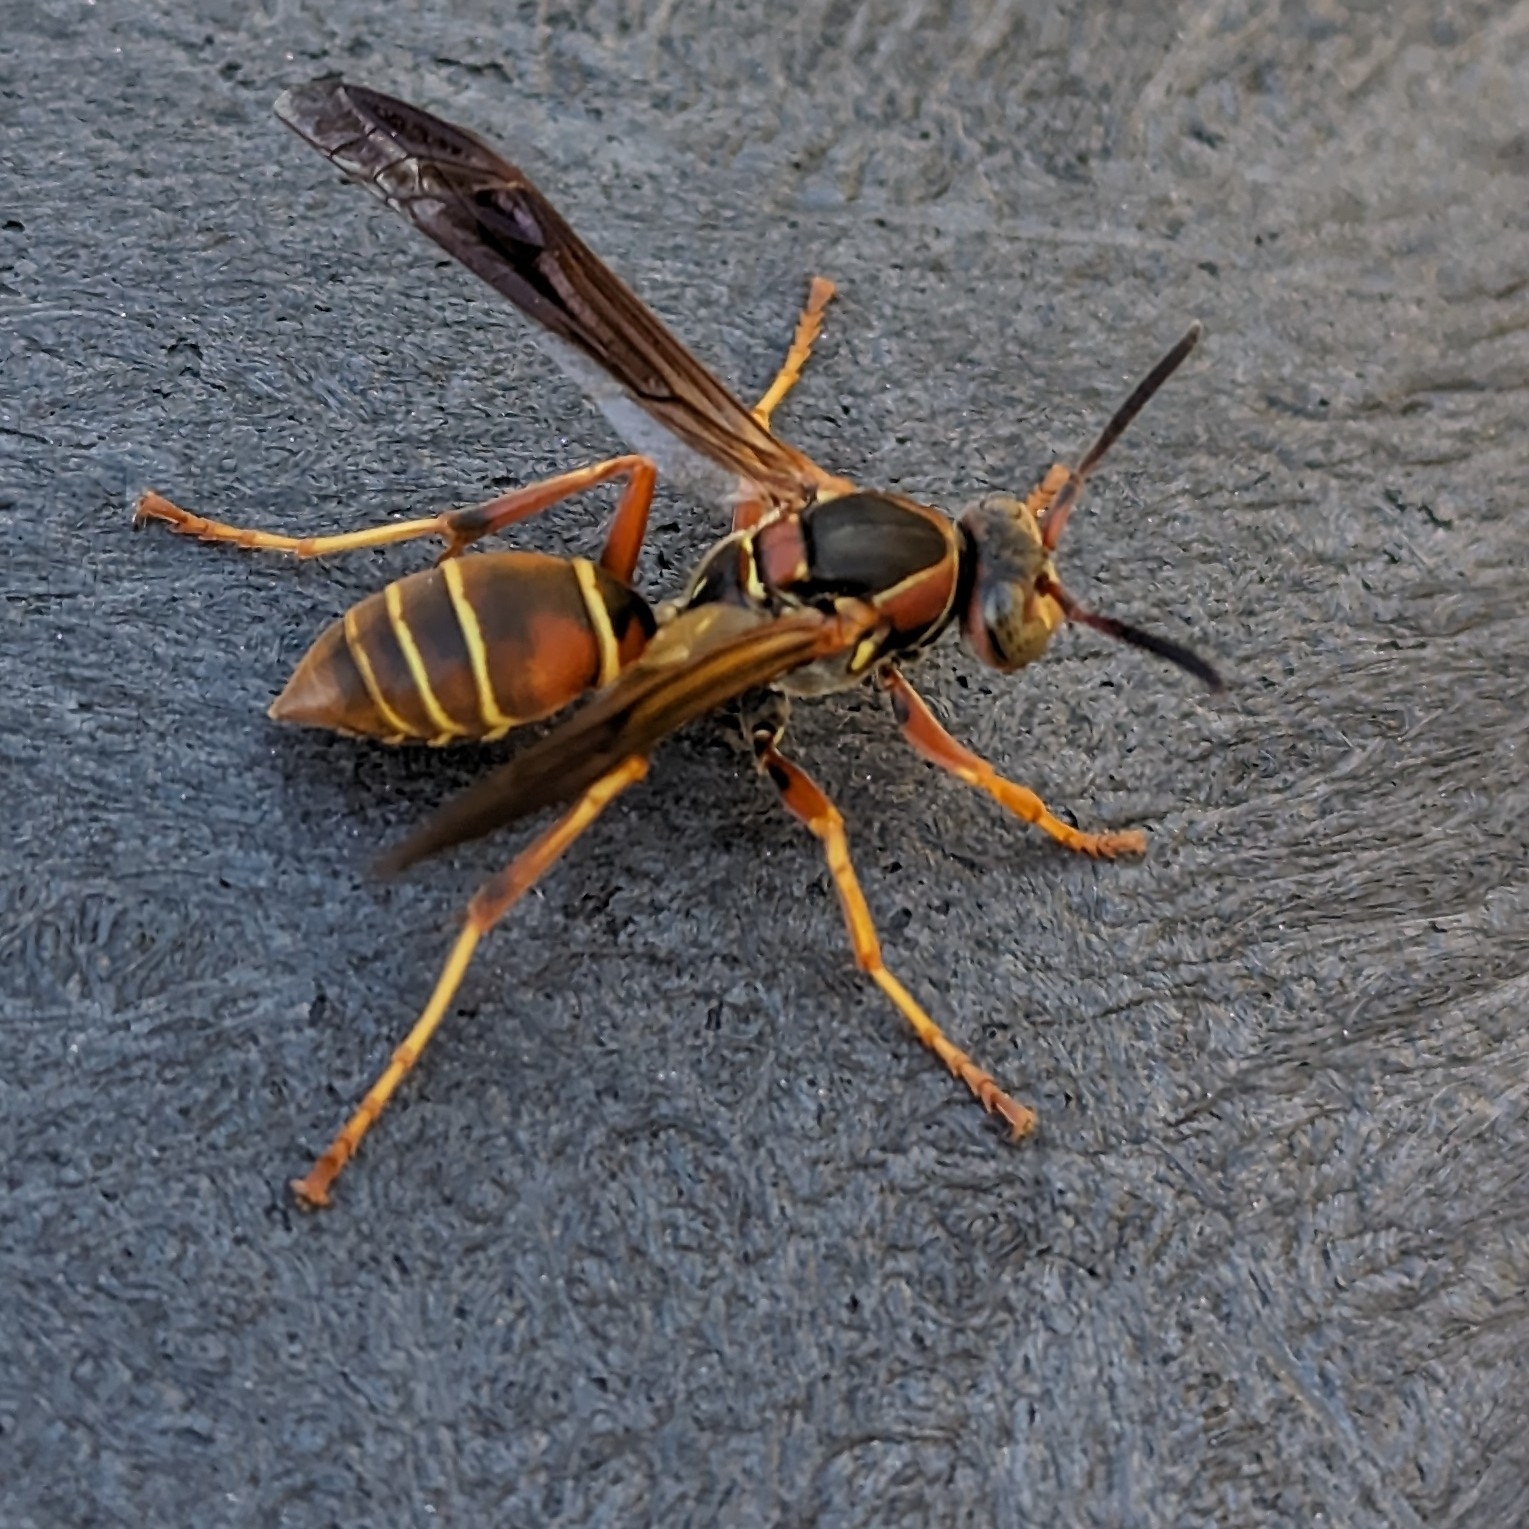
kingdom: Animalia
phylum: Arthropoda
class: Insecta
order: Hymenoptera
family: Eumenidae
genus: Polistes
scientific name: Polistes fuscatus
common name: Dark paper wasp
